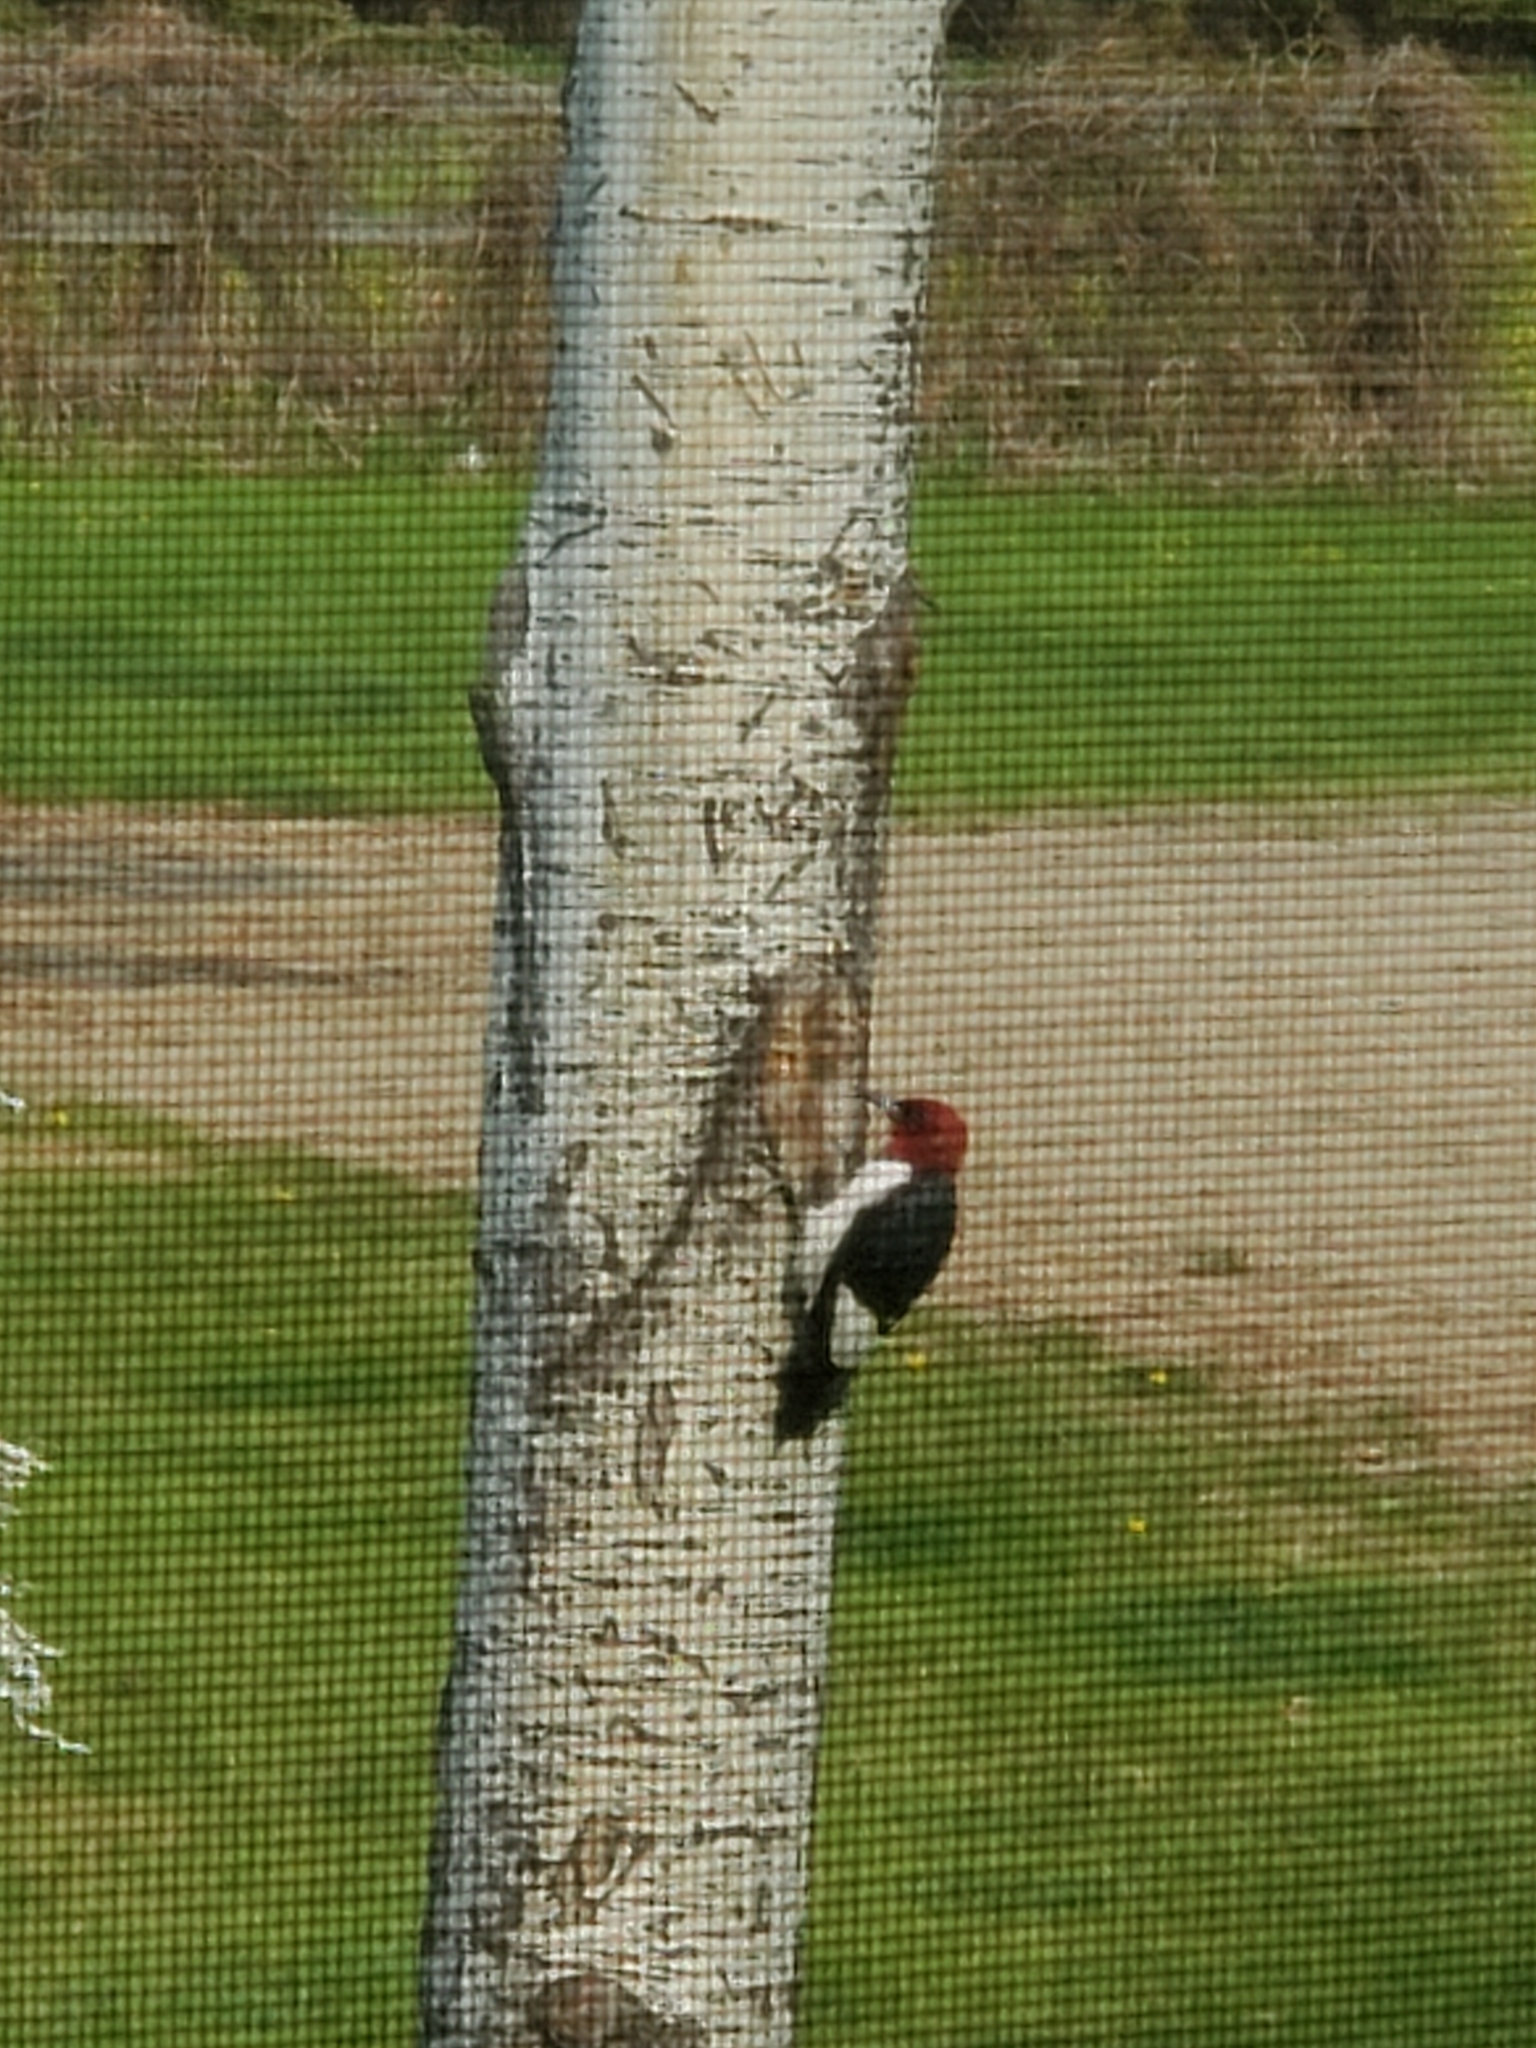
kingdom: Animalia
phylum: Chordata
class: Aves
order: Piciformes
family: Picidae
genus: Melanerpes
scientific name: Melanerpes erythrocephalus
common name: Red-headed woodpecker
